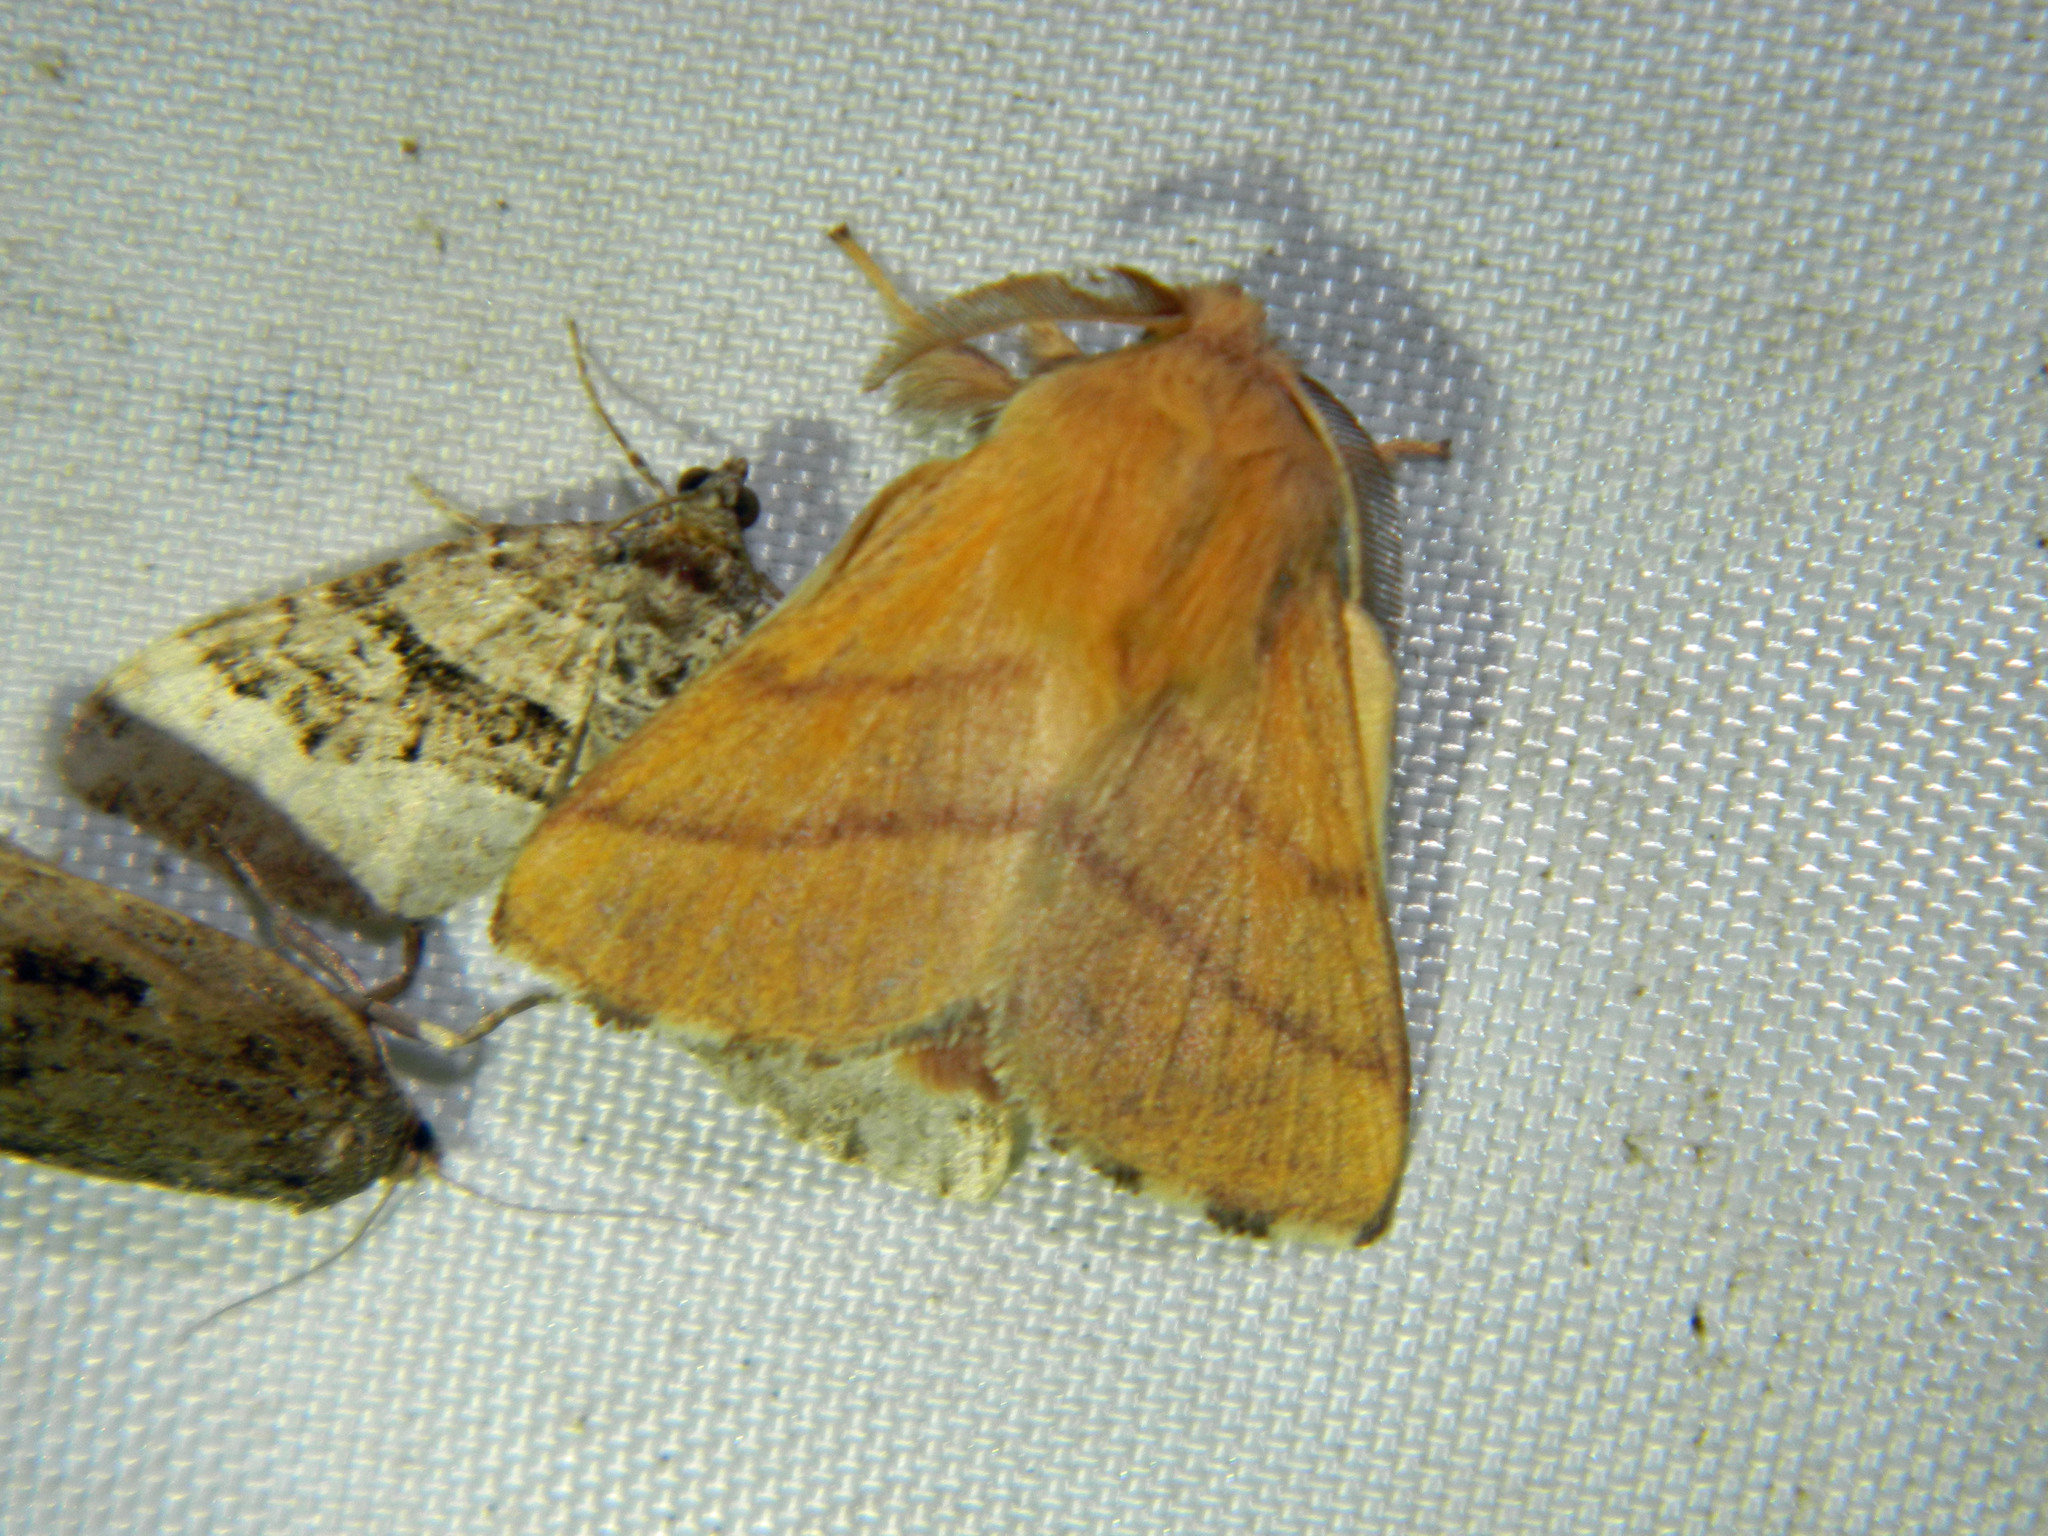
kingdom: Animalia
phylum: Arthropoda
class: Insecta
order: Lepidoptera
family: Lasiocampidae
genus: Malacosoma
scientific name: Malacosoma disstria
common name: Forest tent caterpillar
